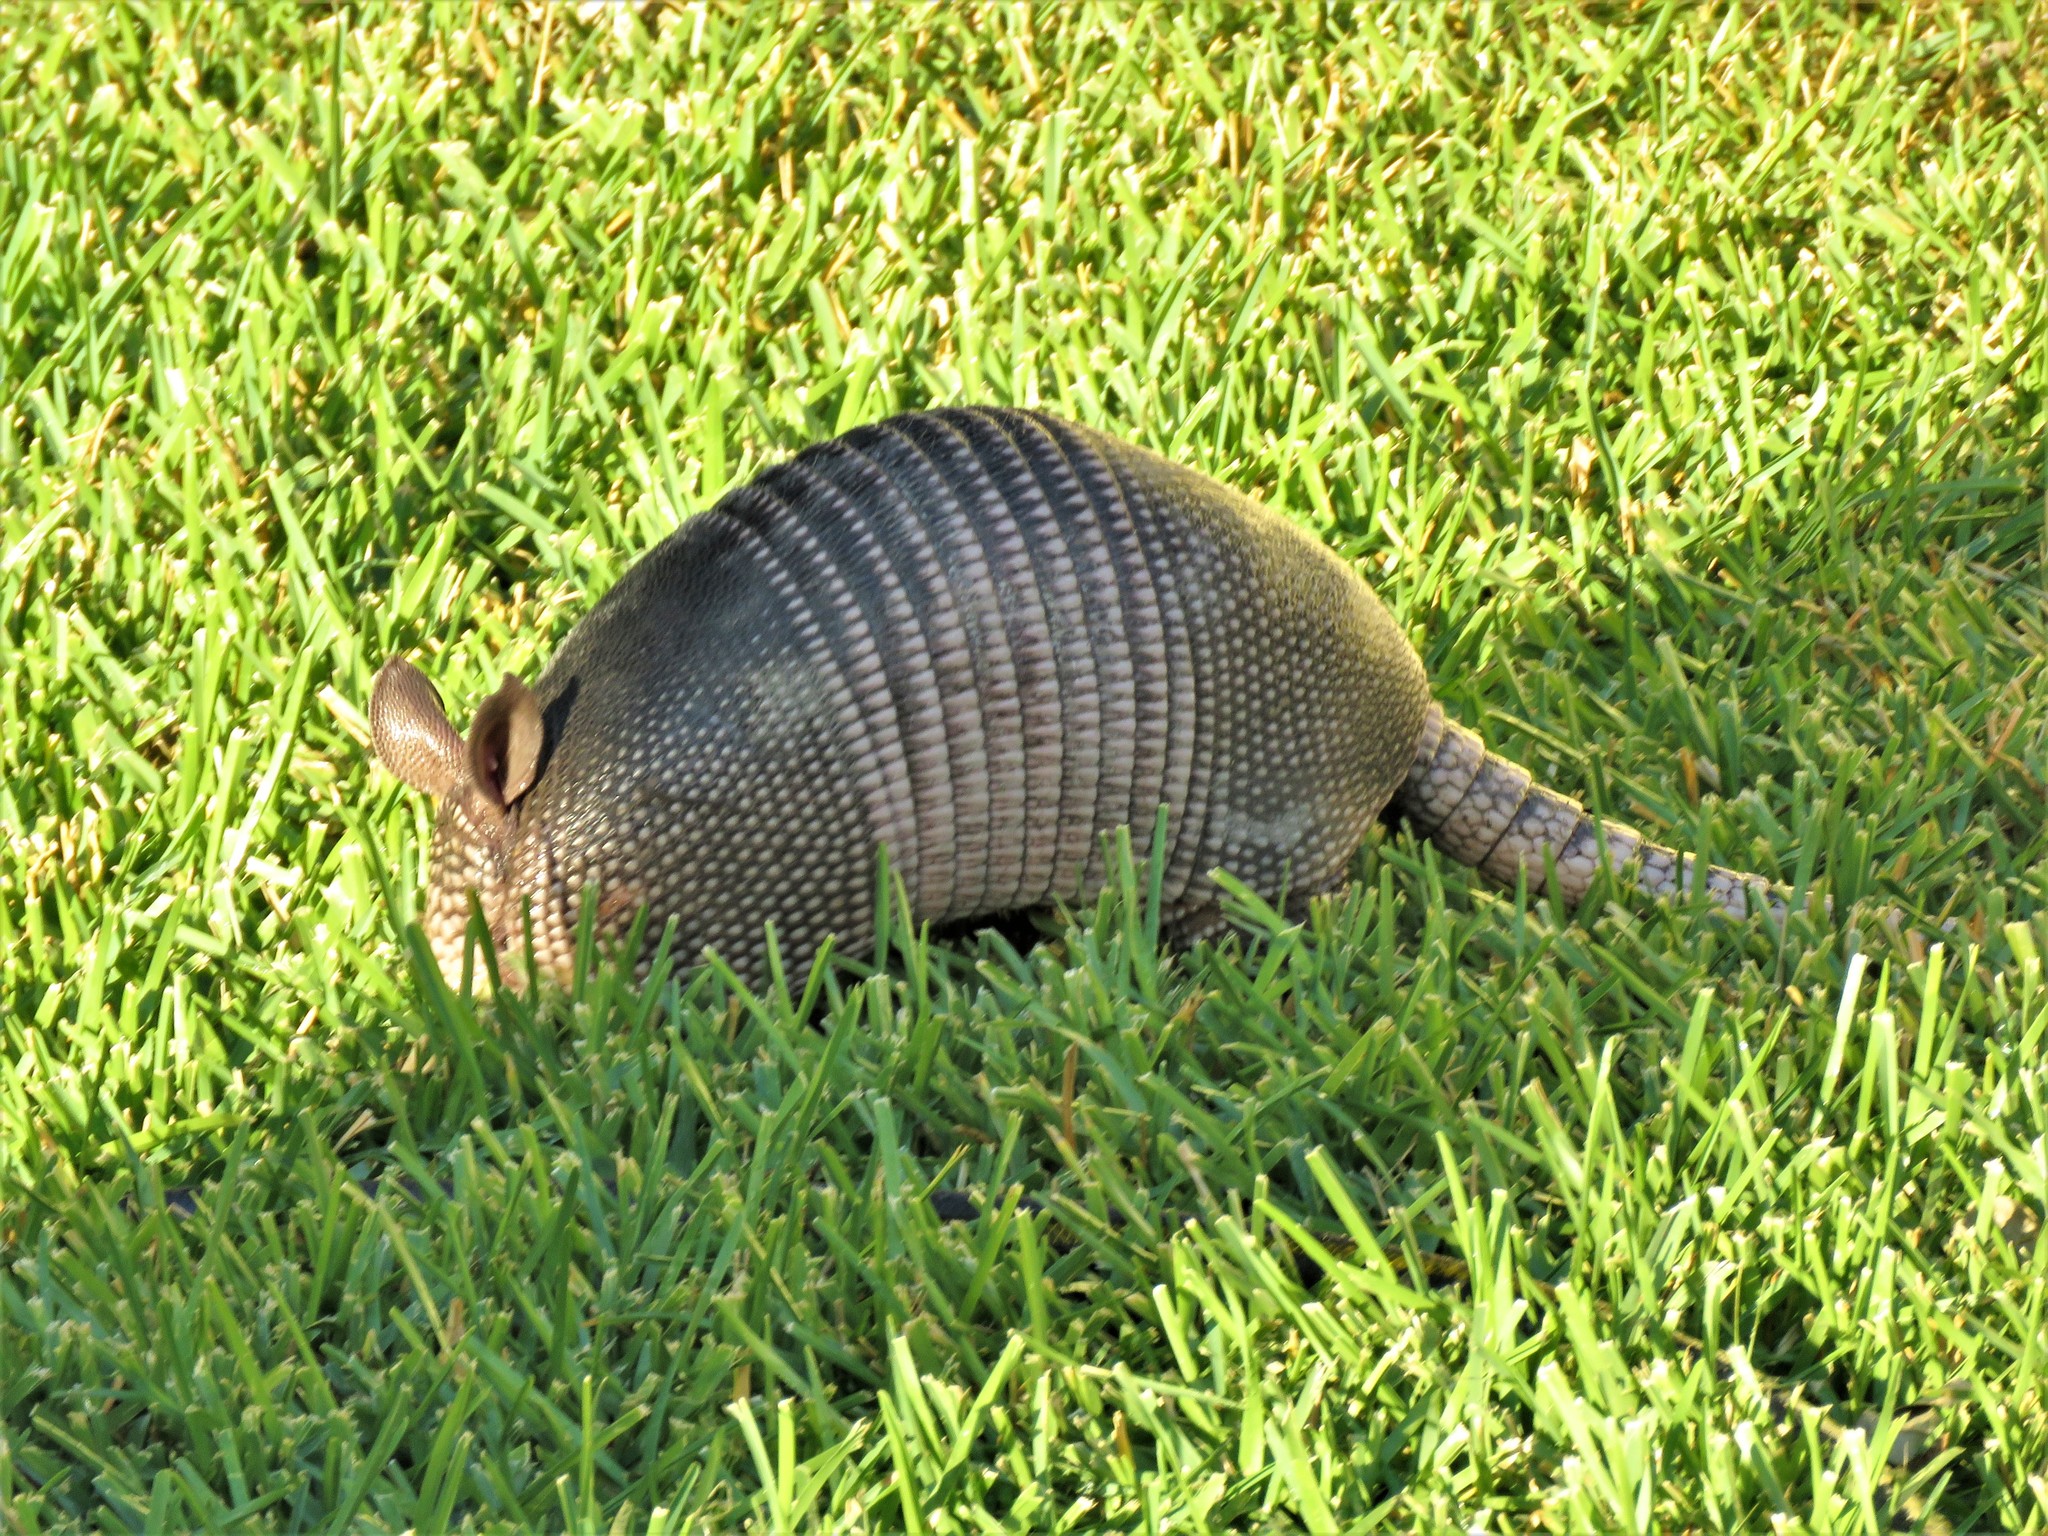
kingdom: Animalia
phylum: Chordata
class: Mammalia
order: Cingulata
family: Dasypodidae
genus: Dasypus
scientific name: Dasypus novemcinctus
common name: Nine-banded armadillo
